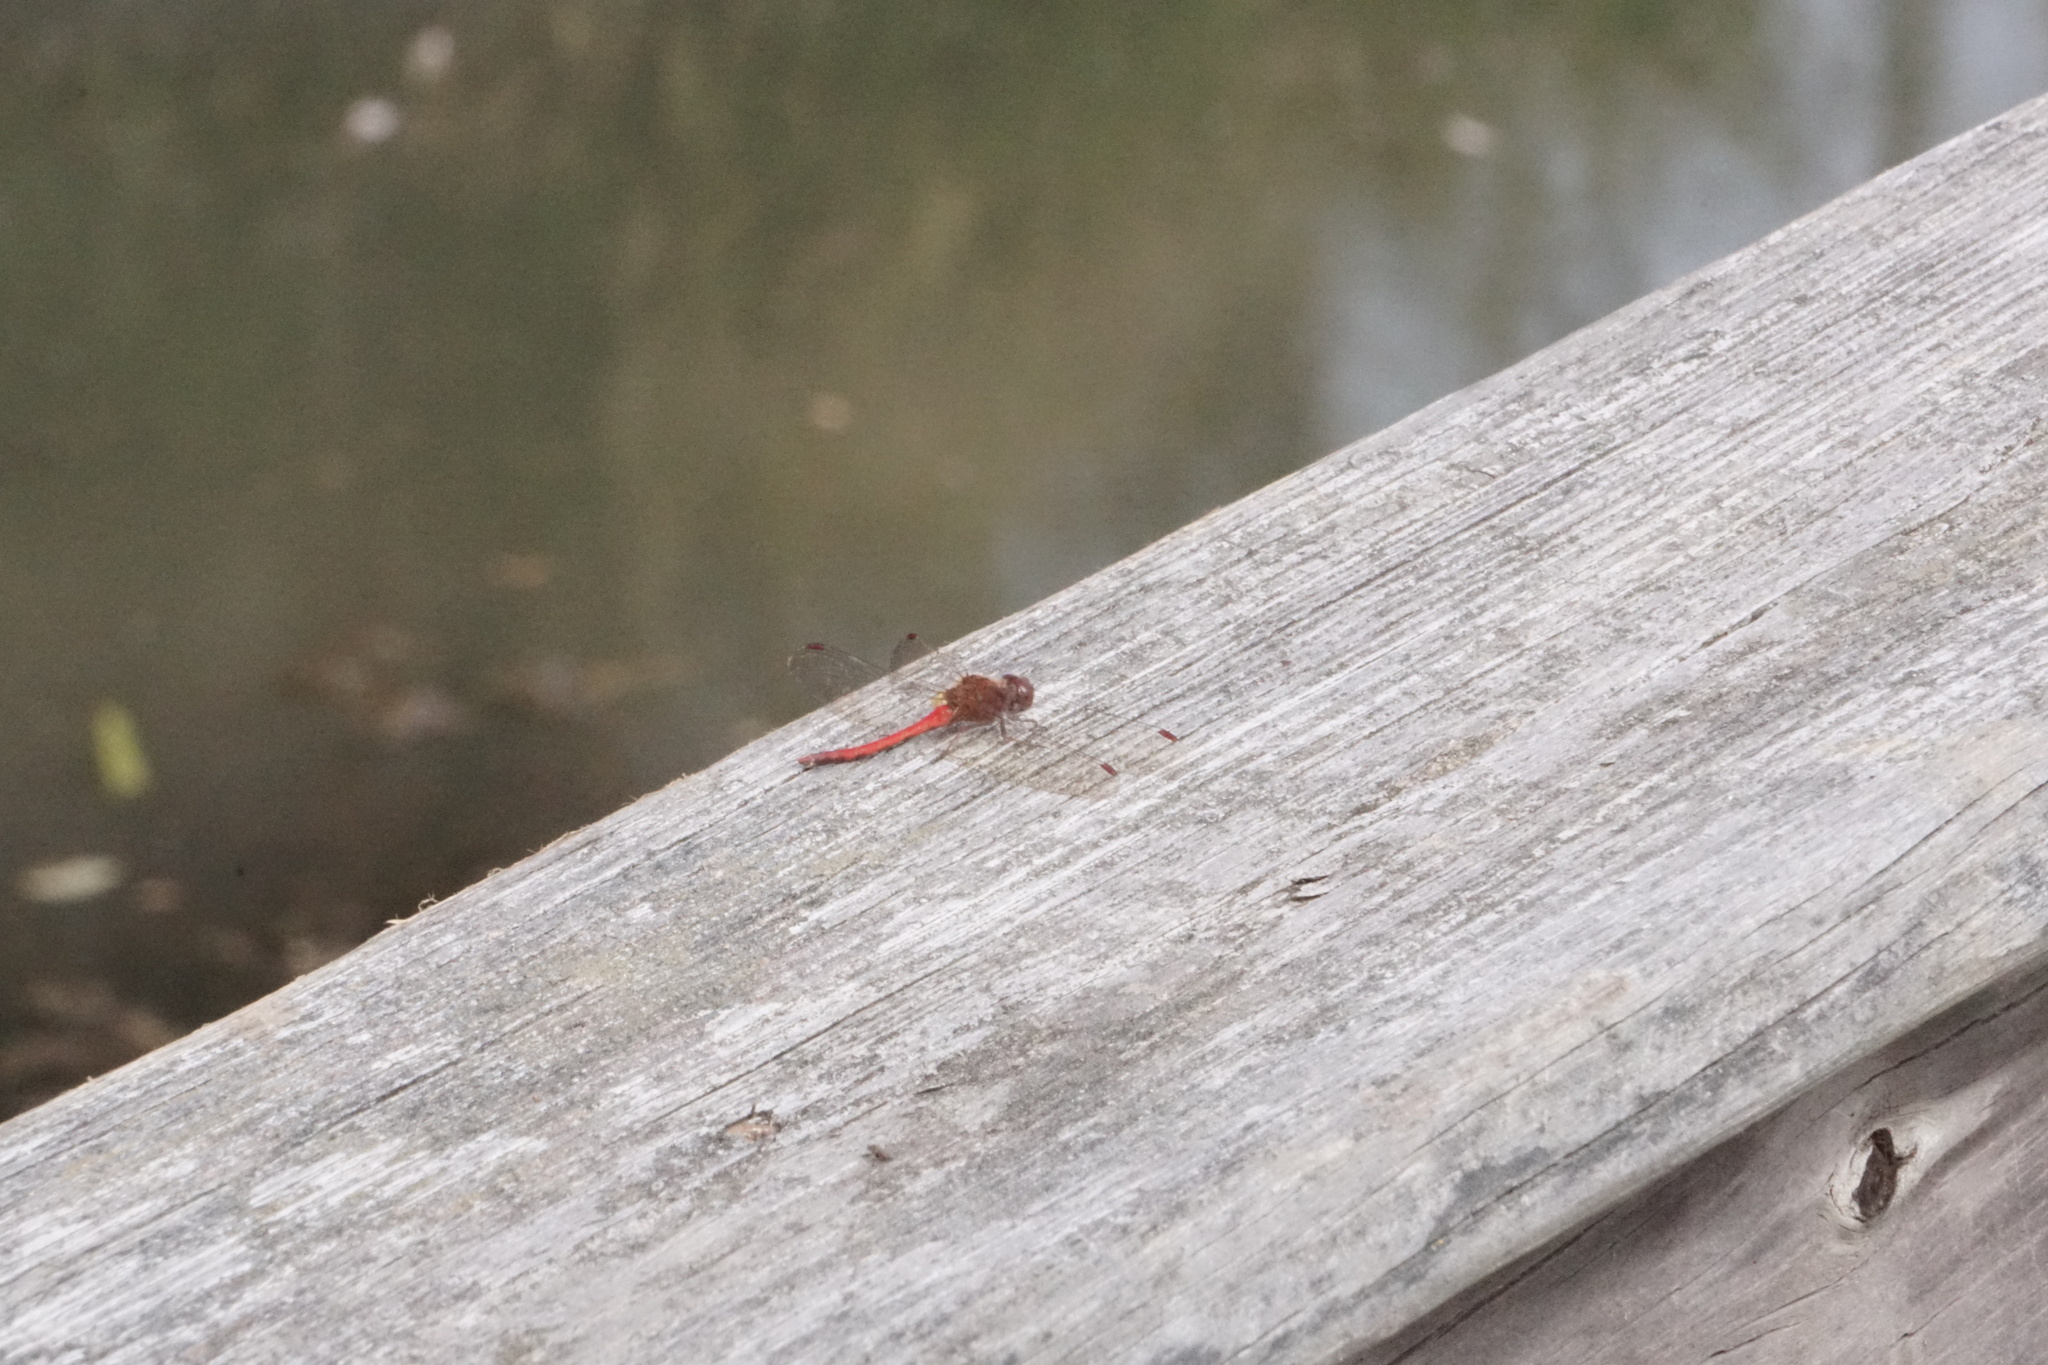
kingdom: Animalia
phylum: Arthropoda
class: Insecta
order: Odonata
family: Libellulidae
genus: Sympetrum
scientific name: Sympetrum vicinum
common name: Autumn meadowhawk
